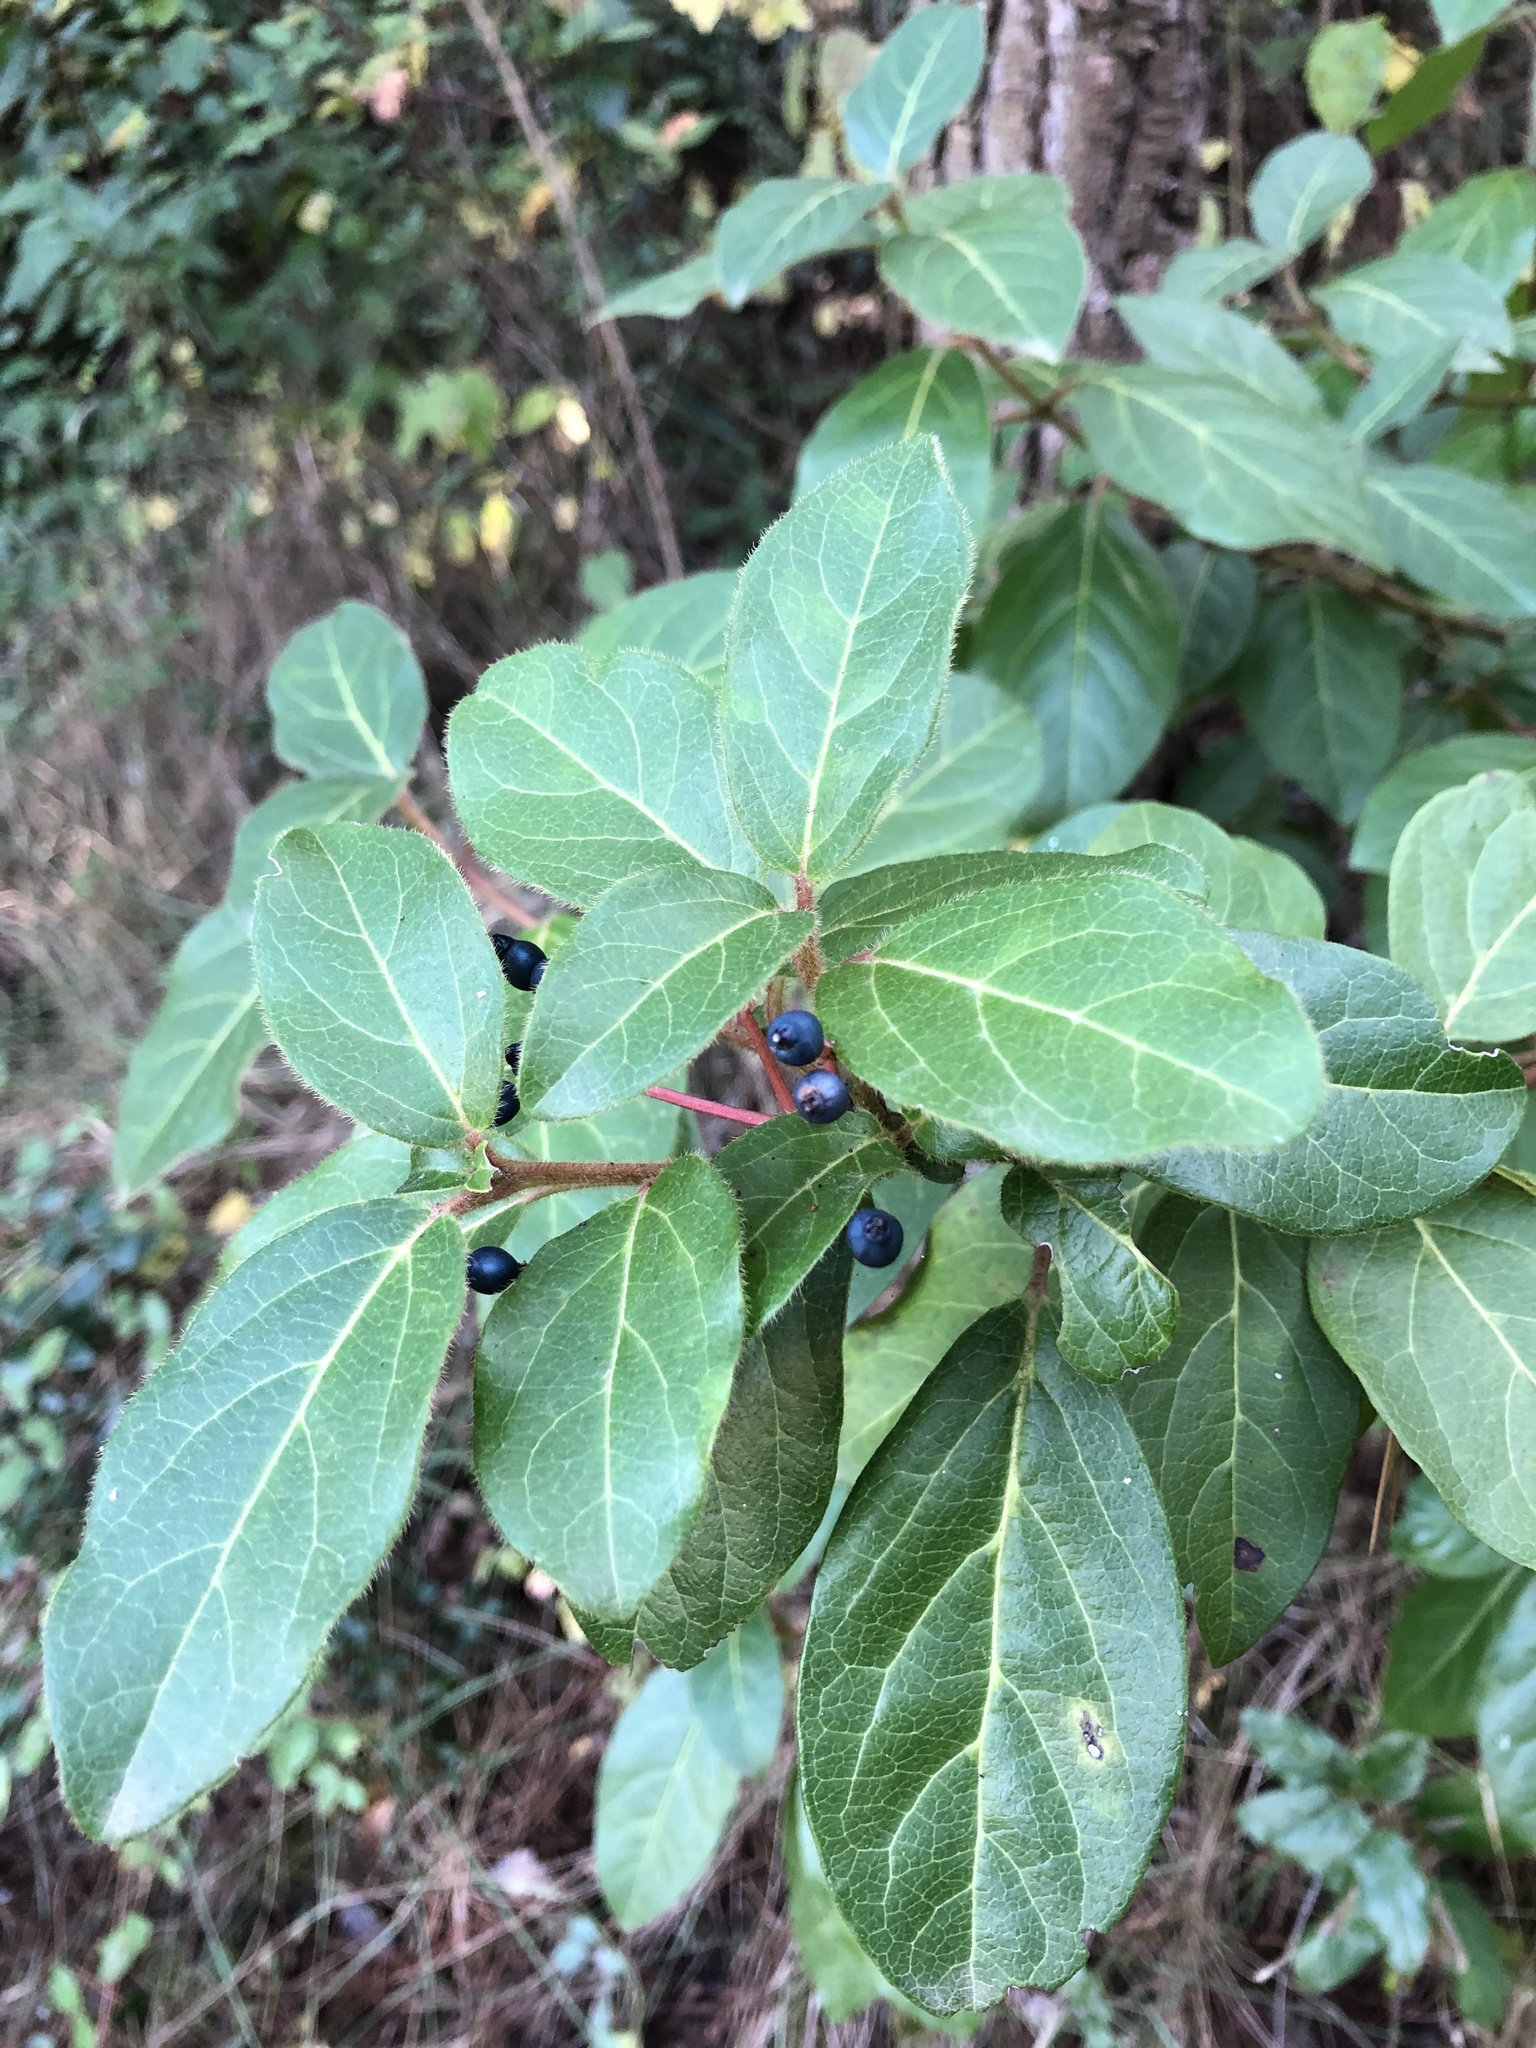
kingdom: Plantae
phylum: Tracheophyta
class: Magnoliopsida
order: Dipsacales
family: Viburnaceae
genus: Viburnum
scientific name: Viburnum tinus
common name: Laurustinus
